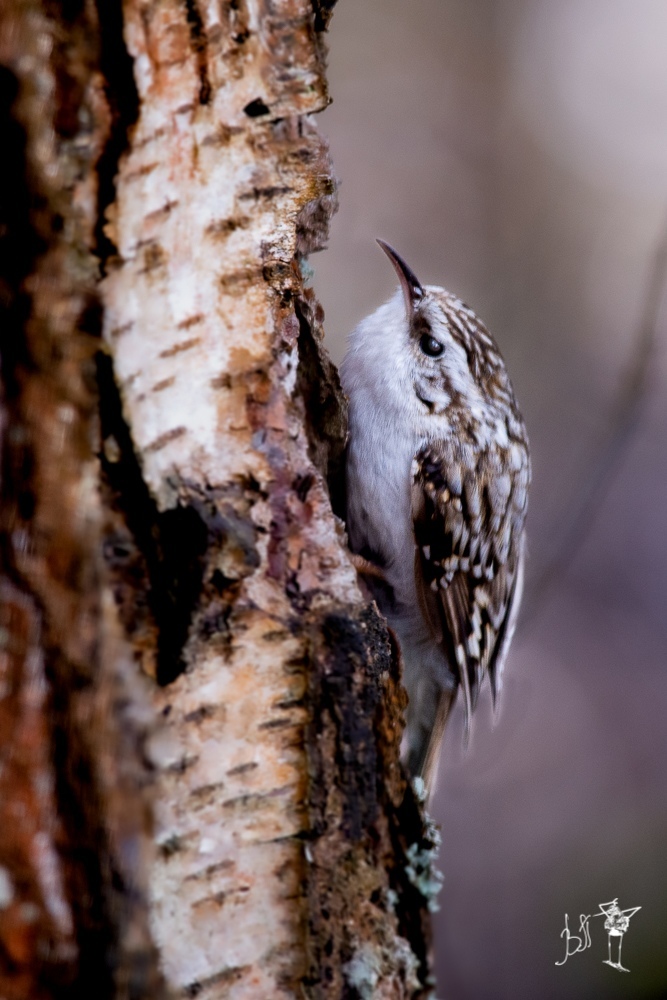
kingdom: Animalia
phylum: Chordata
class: Aves
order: Passeriformes
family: Certhiidae
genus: Certhia
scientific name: Certhia familiaris
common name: Eurasian treecreeper
